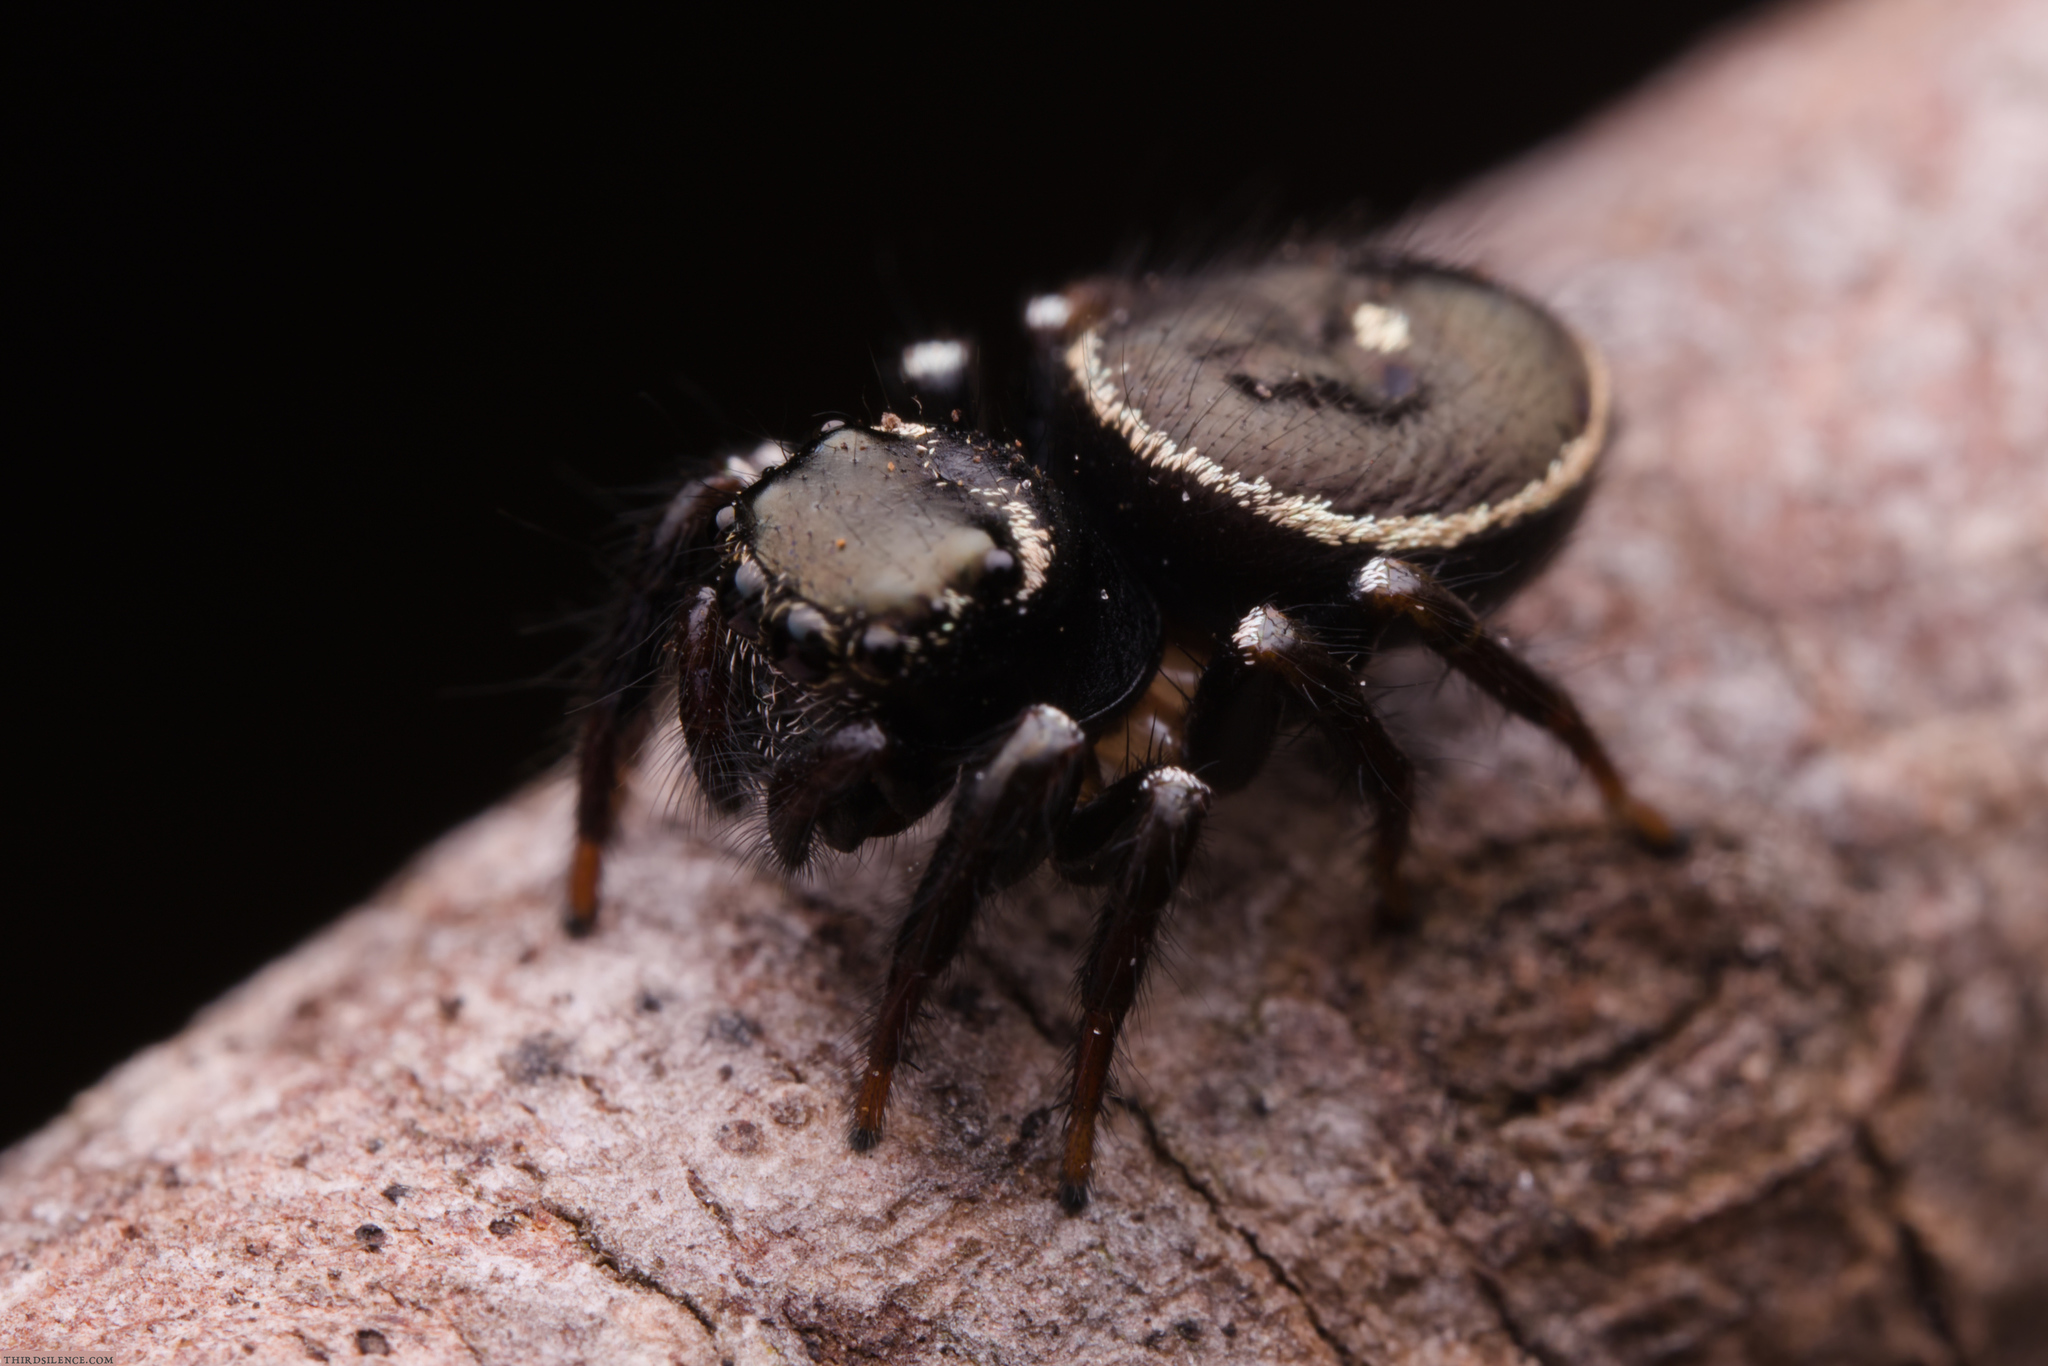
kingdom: Animalia
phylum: Arthropoda
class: Arachnida
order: Araneae
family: Salticidae
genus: Zenodorus
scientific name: Zenodorus orbiculatus
